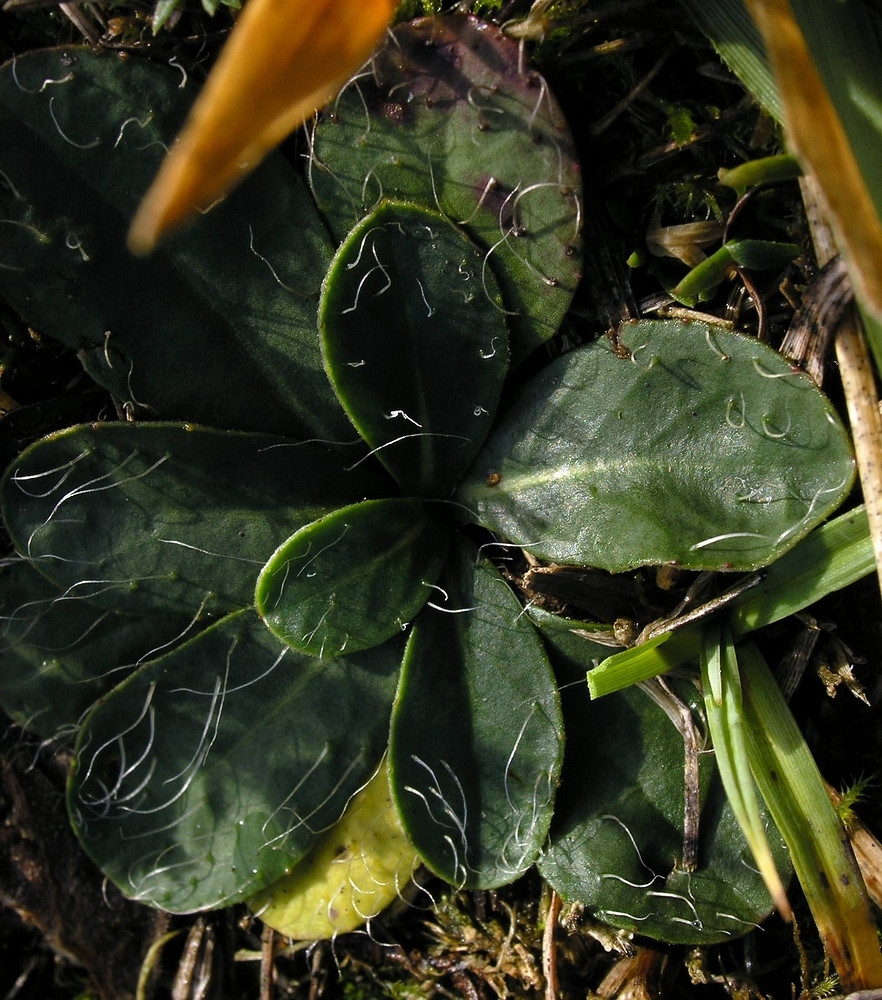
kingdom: Plantae
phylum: Tracheophyta
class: Magnoliopsida
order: Asterales
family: Asteraceae
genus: Pilosella
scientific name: Pilosella officinarum
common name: Mouse-ear hawkweed
